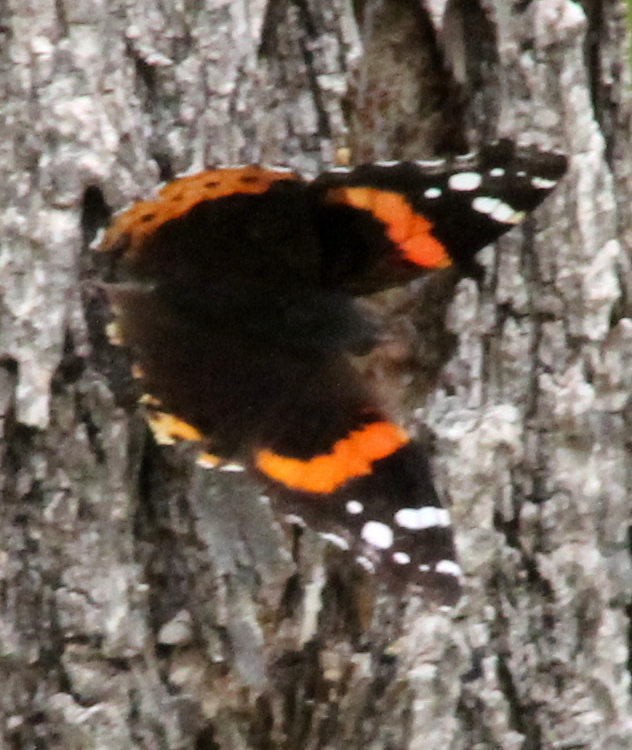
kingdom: Animalia
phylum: Arthropoda
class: Insecta
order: Lepidoptera
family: Nymphalidae
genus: Vanessa
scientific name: Vanessa atalanta
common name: Red admiral
